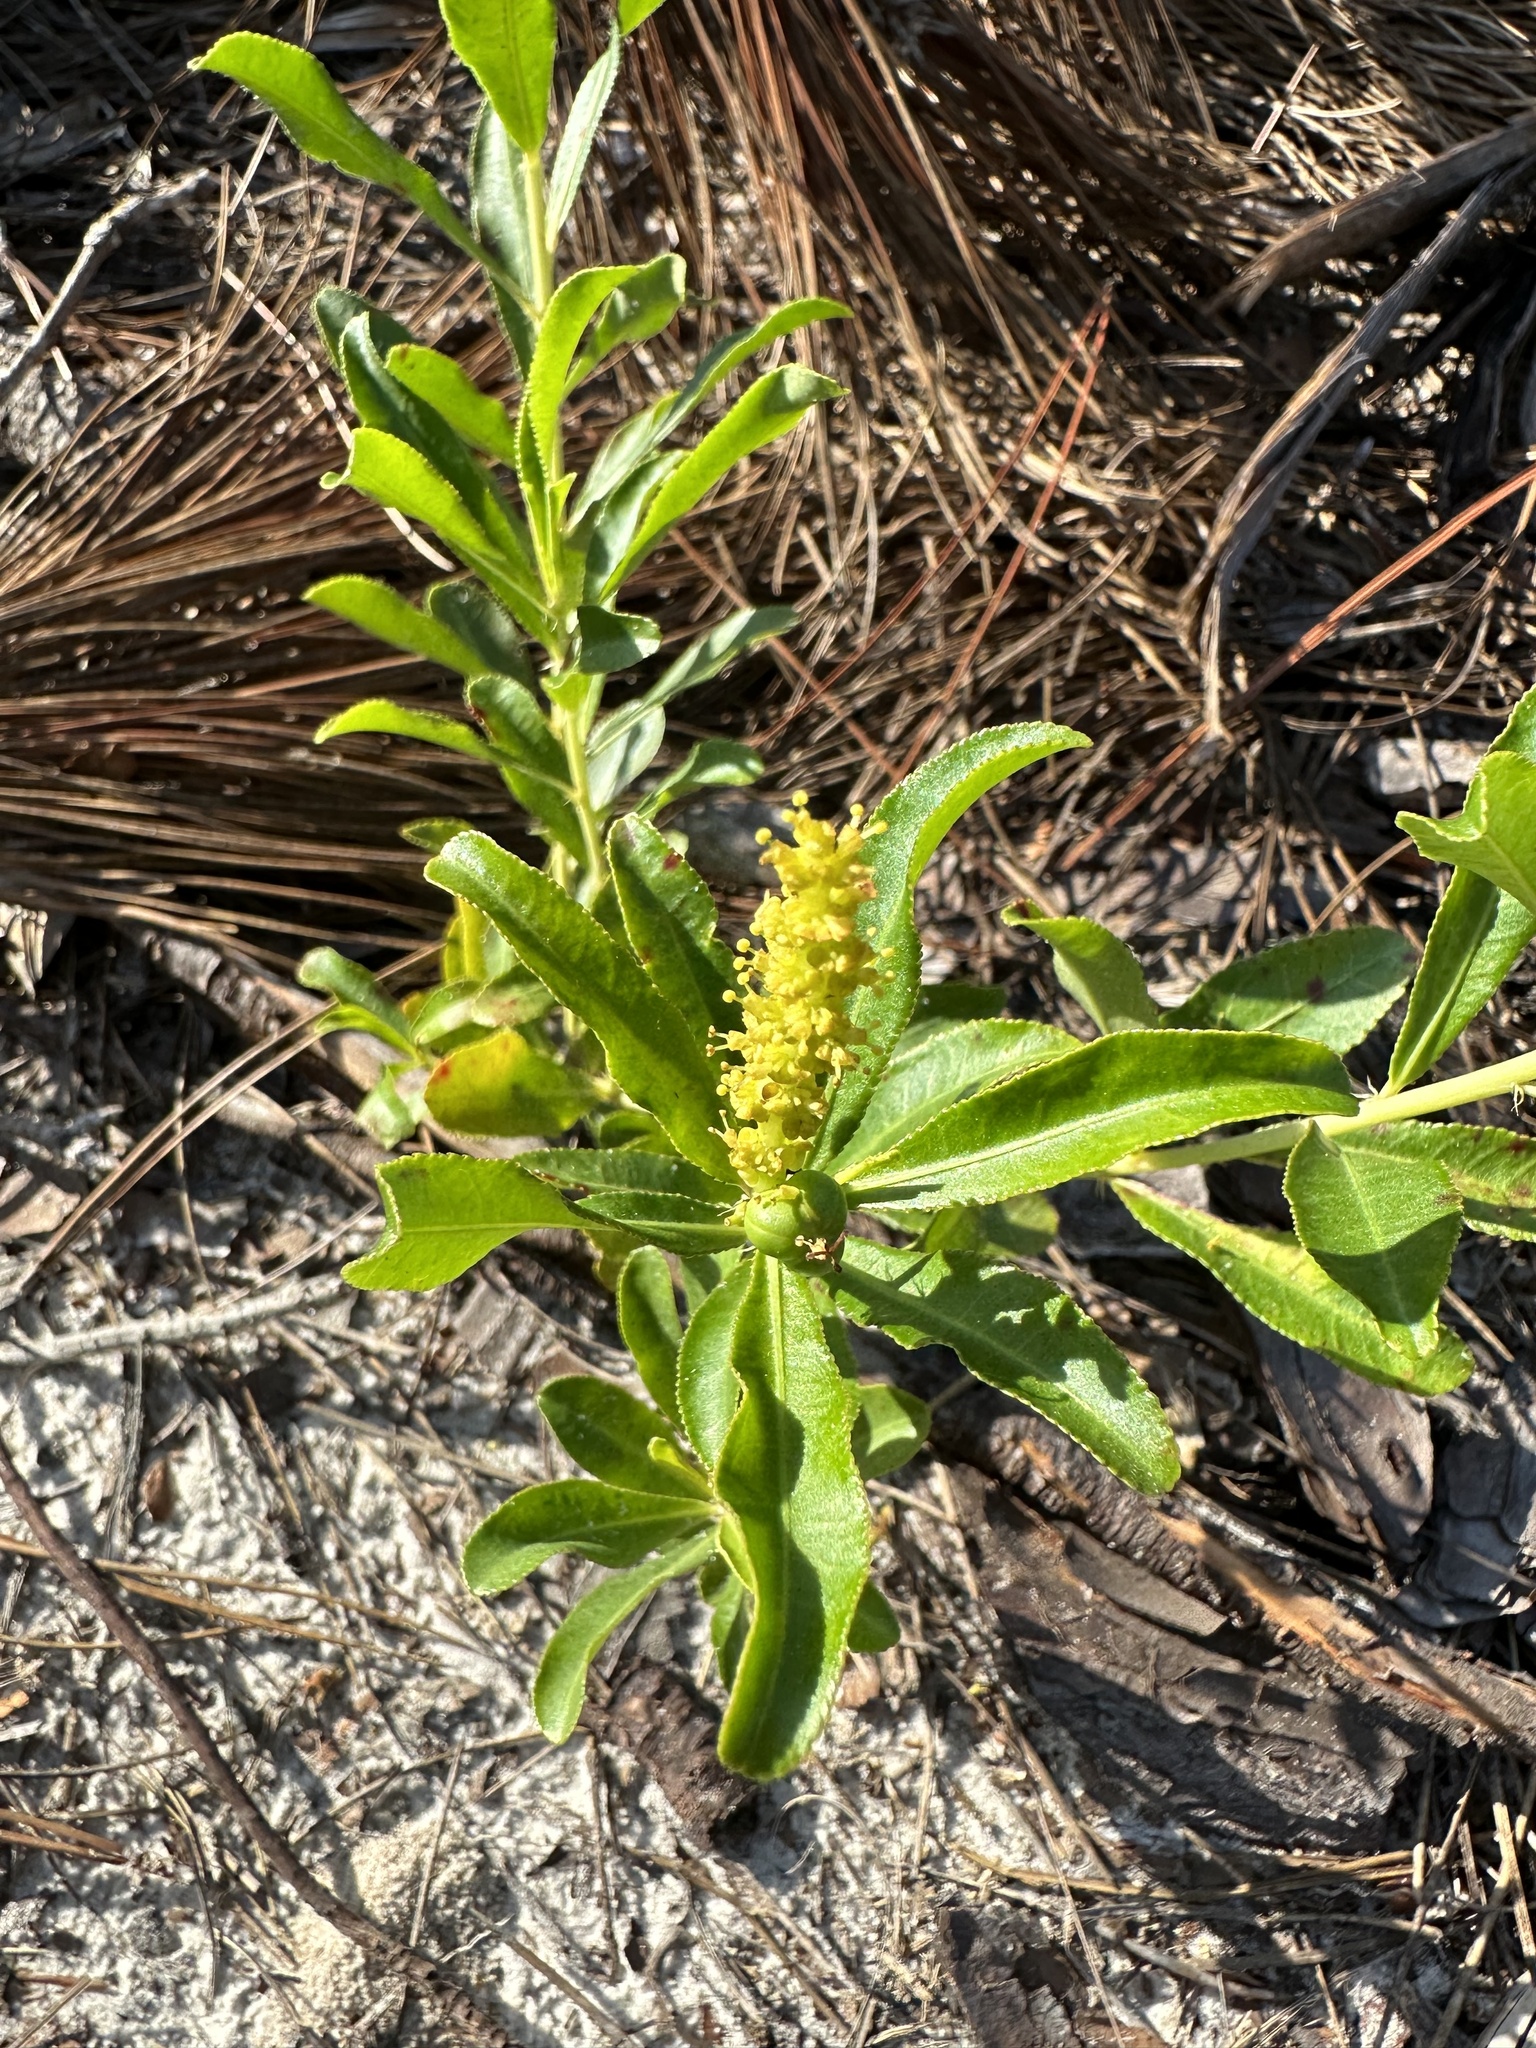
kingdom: Plantae
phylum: Tracheophyta
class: Magnoliopsida
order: Malpighiales
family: Euphorbiaceae
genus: Stillingia
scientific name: Stillingia sylvatica
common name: Queen's-delight
